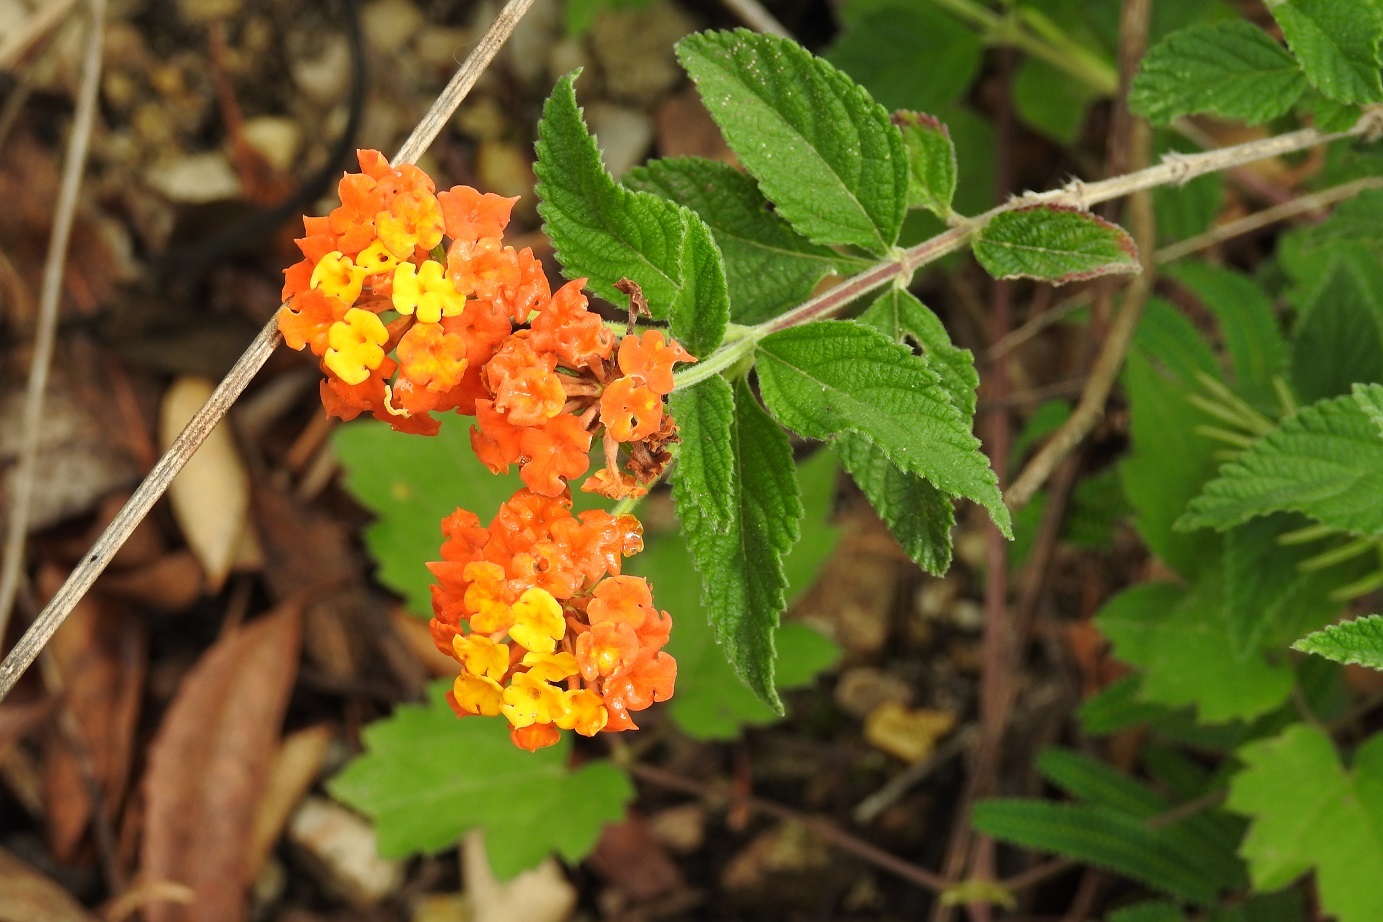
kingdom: Plantae
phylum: Tracheophyta
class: Magnoliopsida
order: Lamiales
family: Verbenaceae
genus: Lantana
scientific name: Lantana horrida
